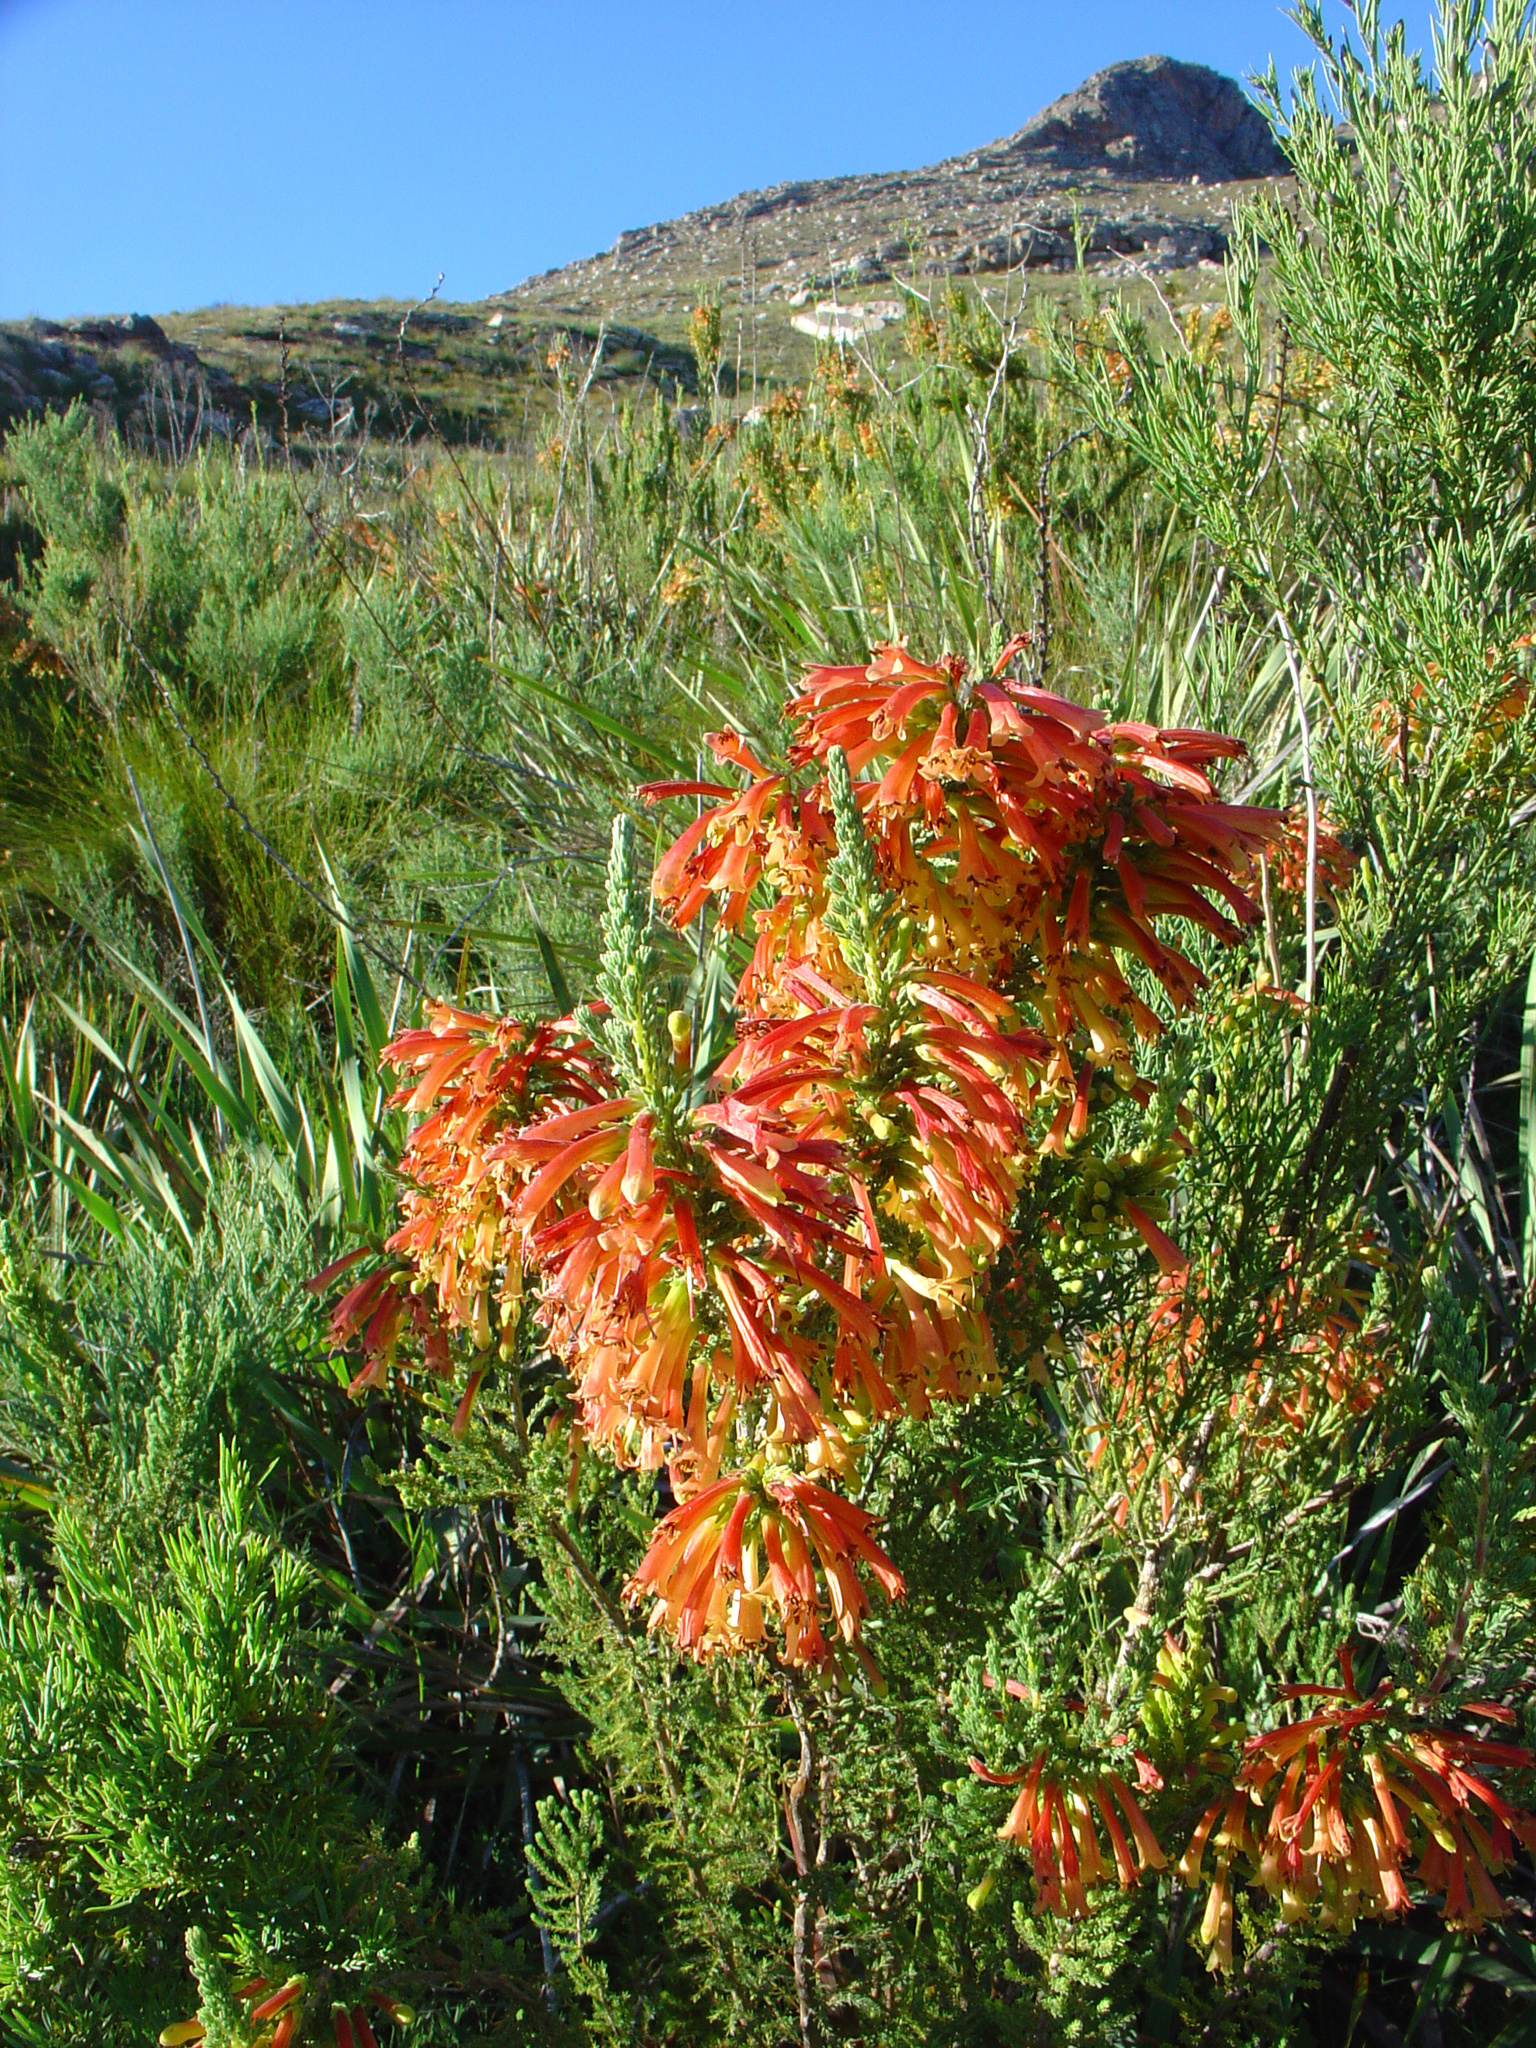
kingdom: Plantae
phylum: Tracheophyta
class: Magnoliopsida
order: Ericales
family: Ericaceae
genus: Erica
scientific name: Erica curviflora
